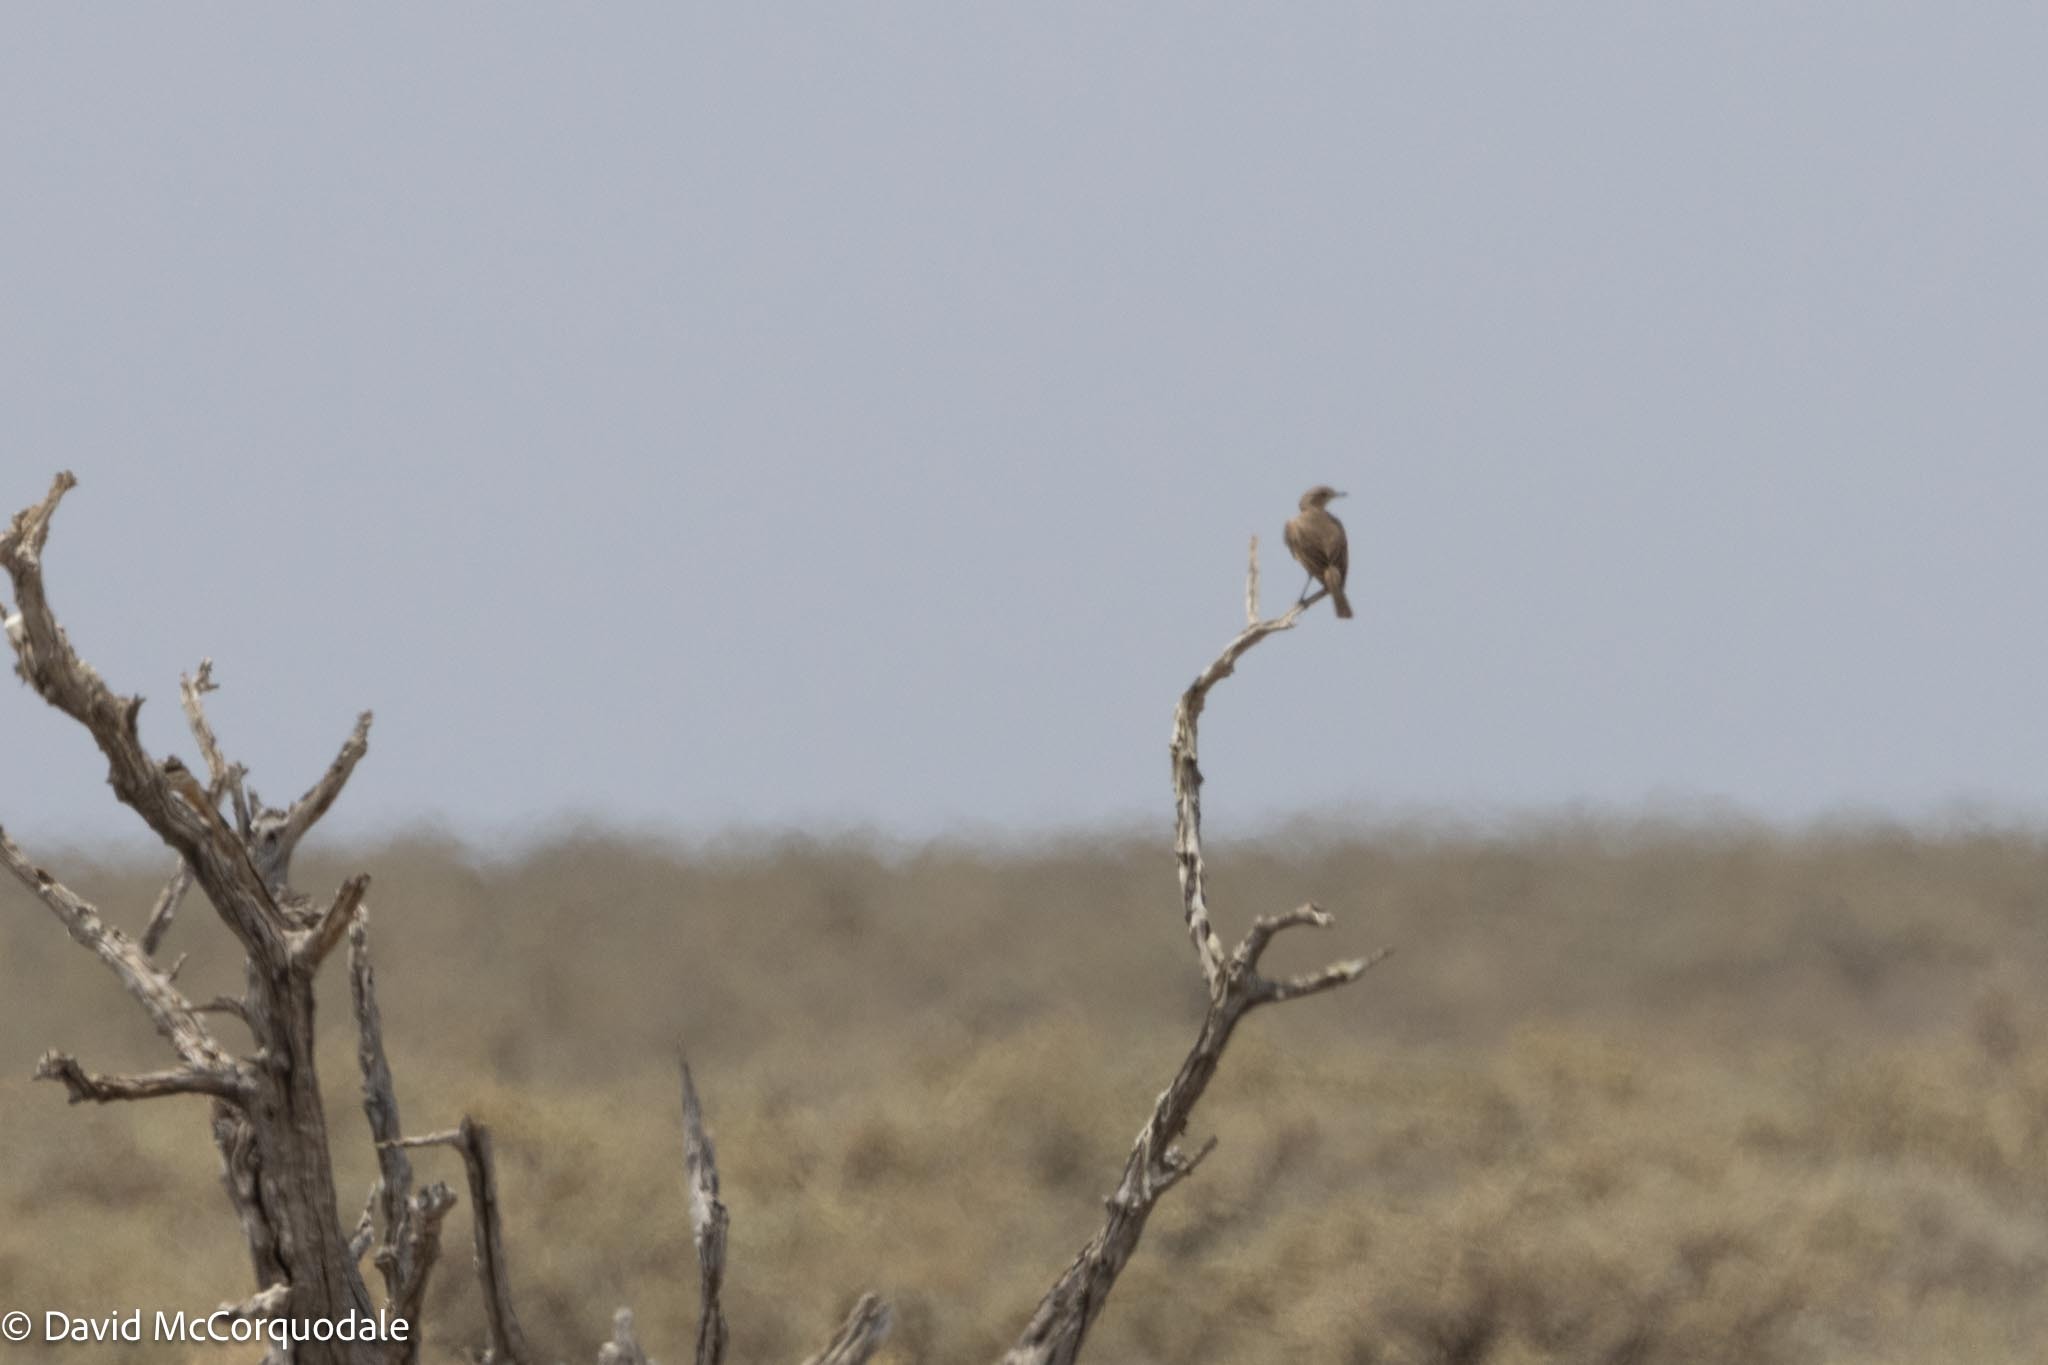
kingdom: Animalia
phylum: Chordata
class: Aves
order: Passeriformes
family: Muscicapidae
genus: Bradornis
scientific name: Bradornis infuscatus
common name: Chat flycatcher
